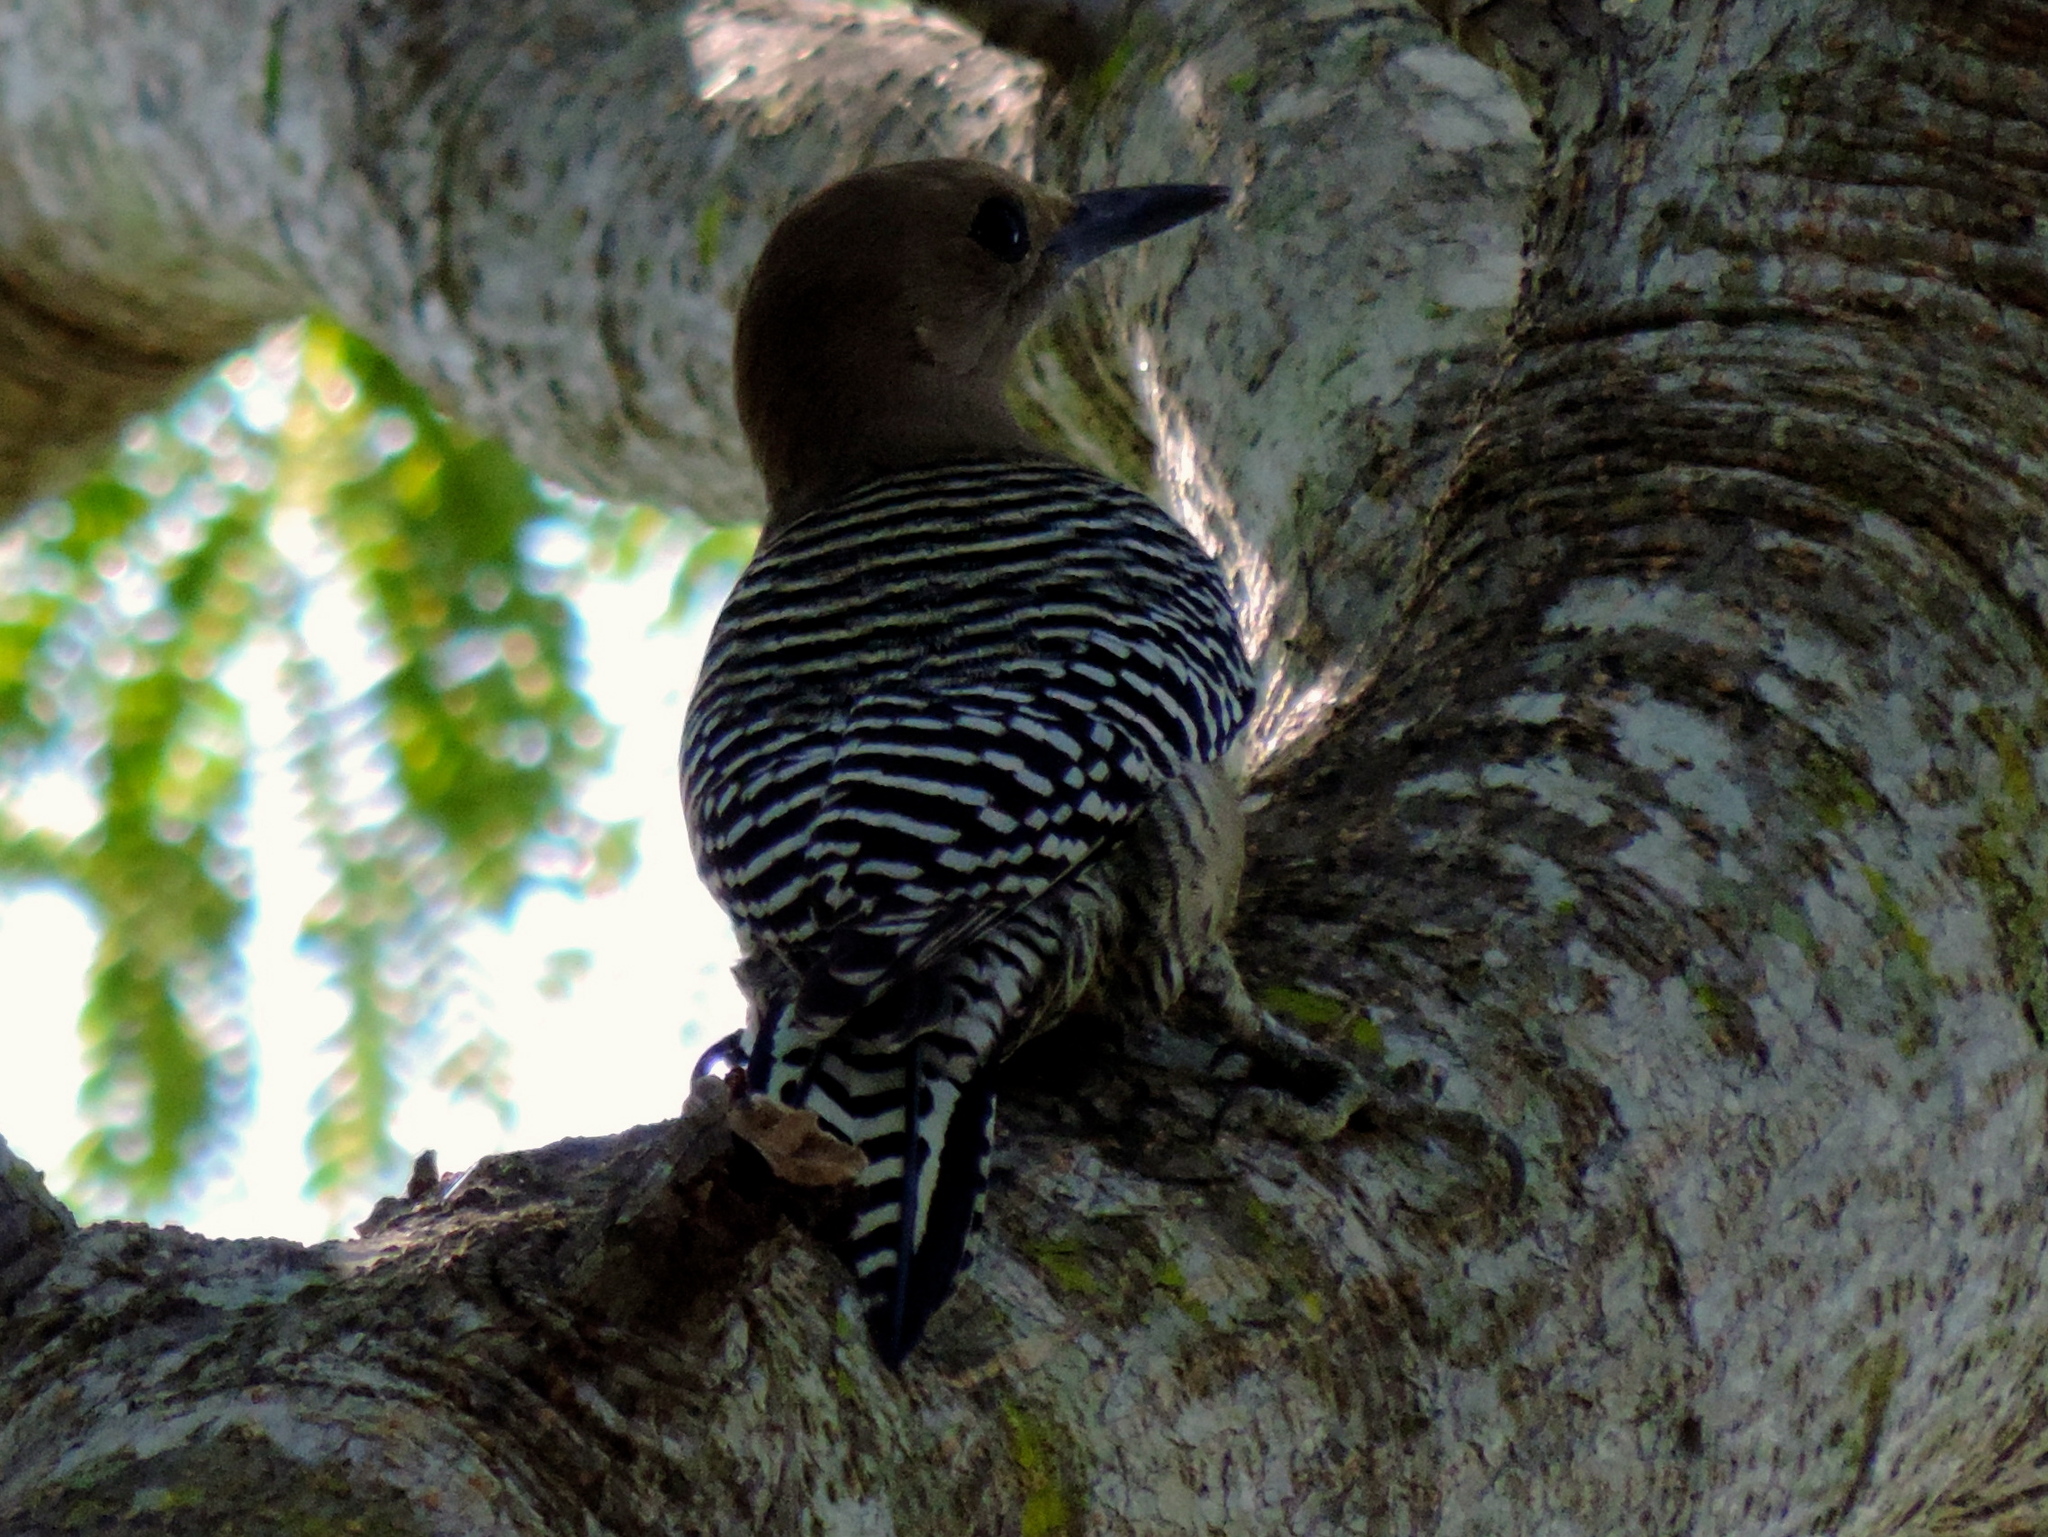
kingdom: Animalia
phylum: Chordata
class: Aves
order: Piciformes
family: Picidae
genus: Melanerpes
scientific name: Melanerpes uropygialis
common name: Gila woodpecker
